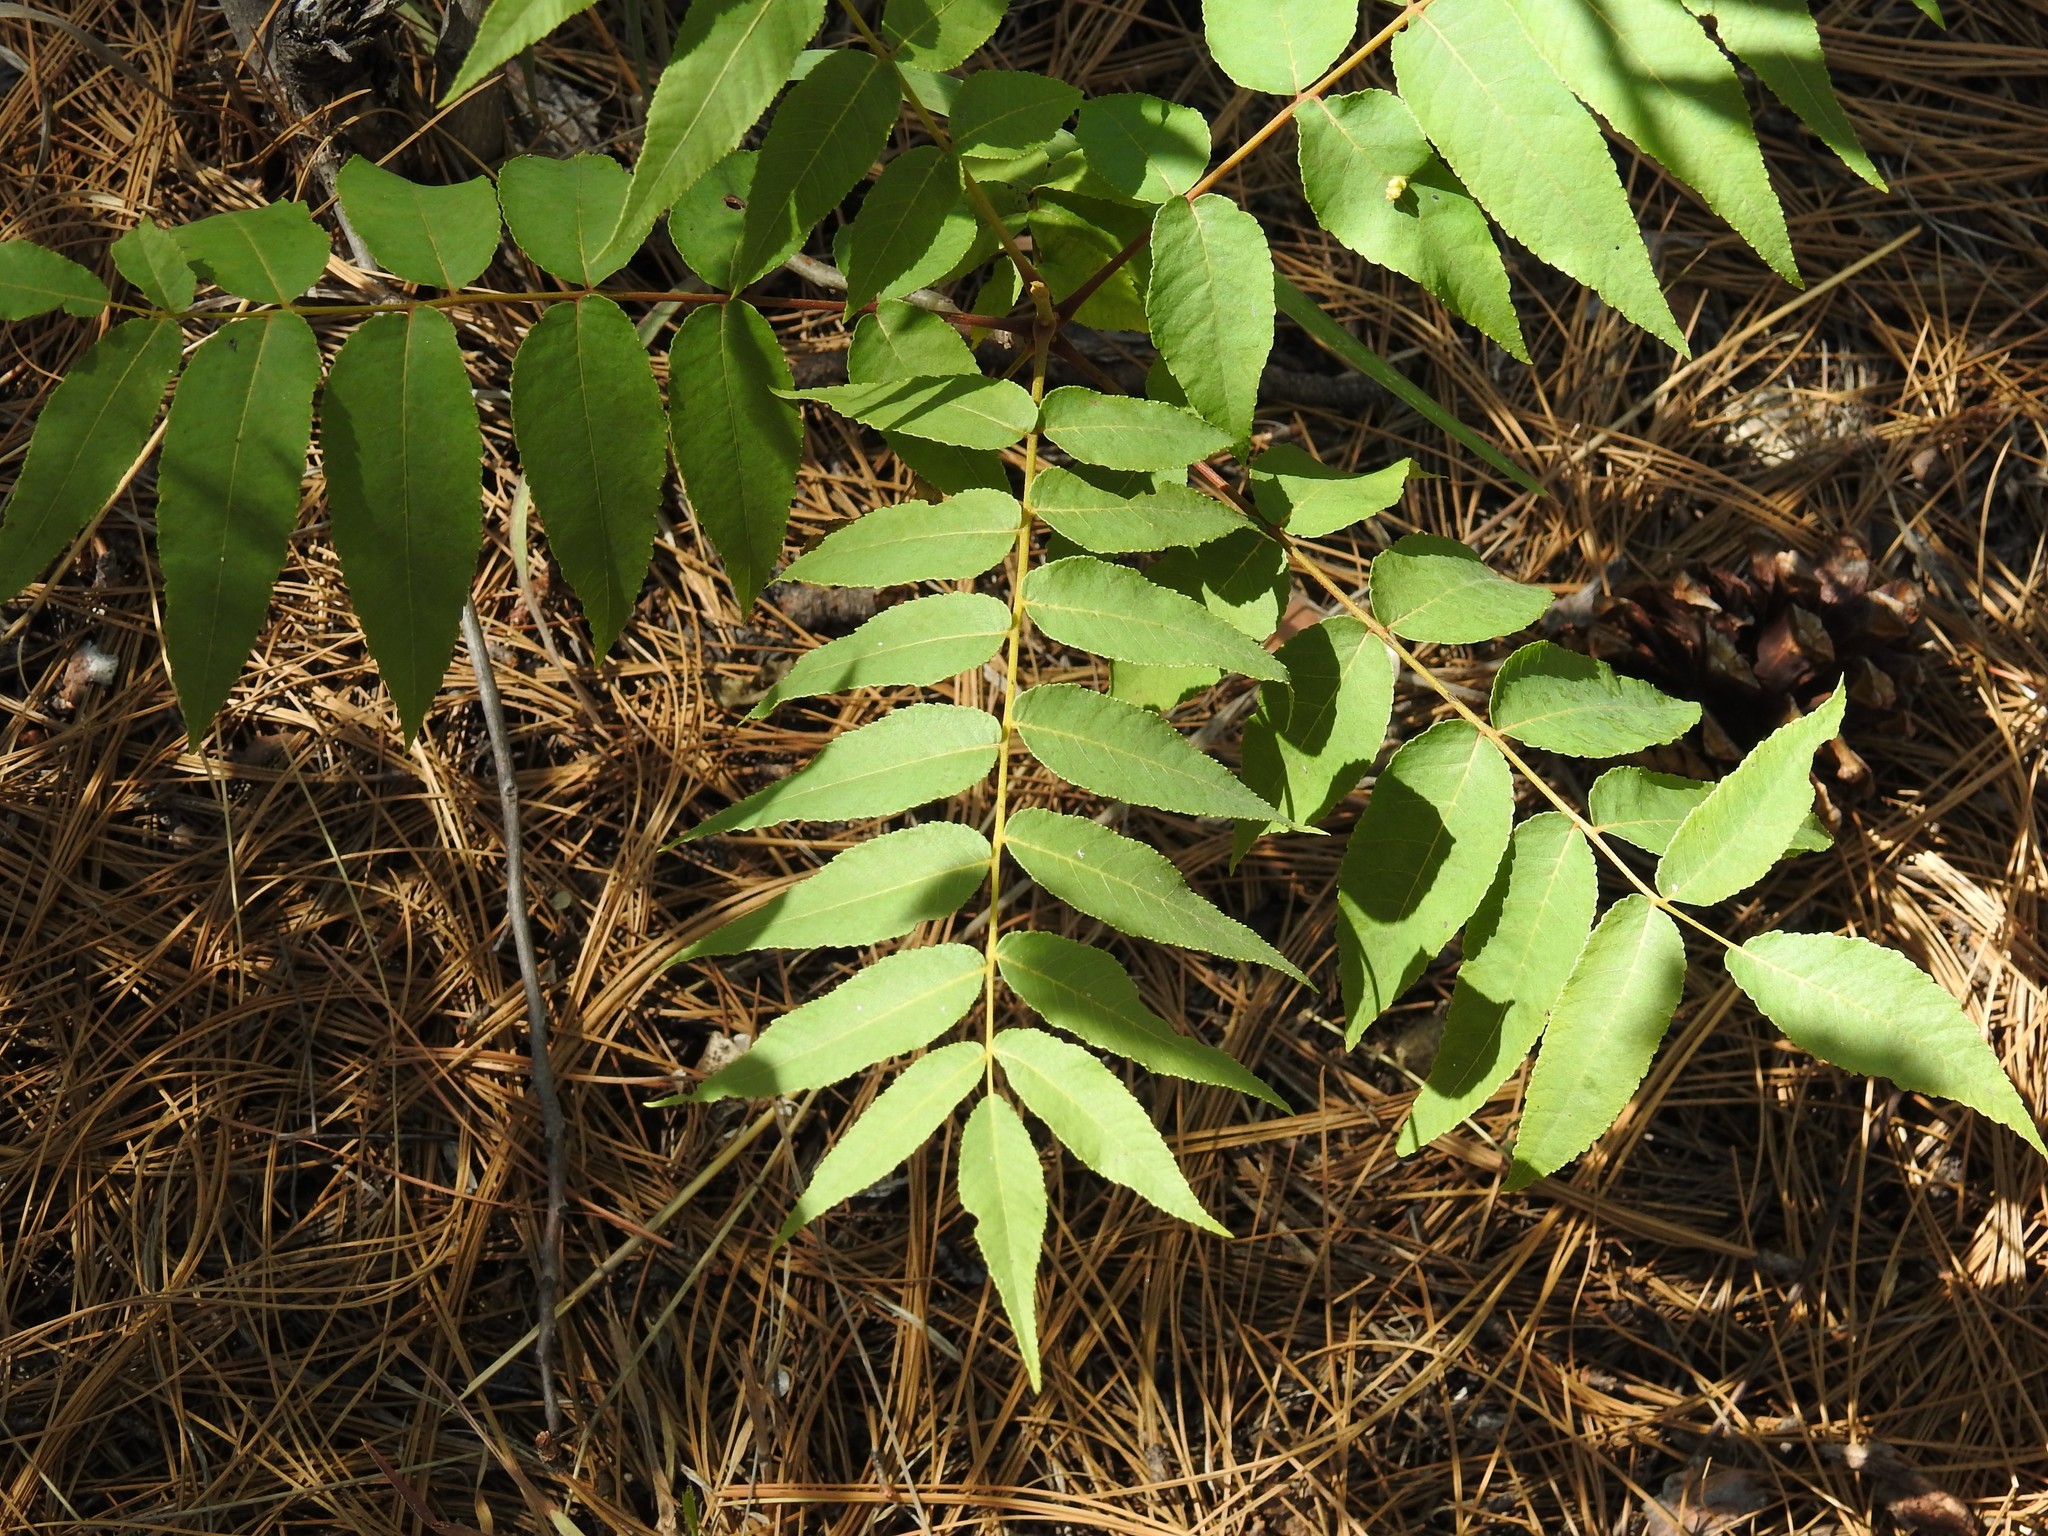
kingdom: Plantae
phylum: Tracheophyta
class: Magnoliopsida
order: Fagales
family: Juglandaceae
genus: Juglans
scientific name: Juglans major
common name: Arizona walnut
